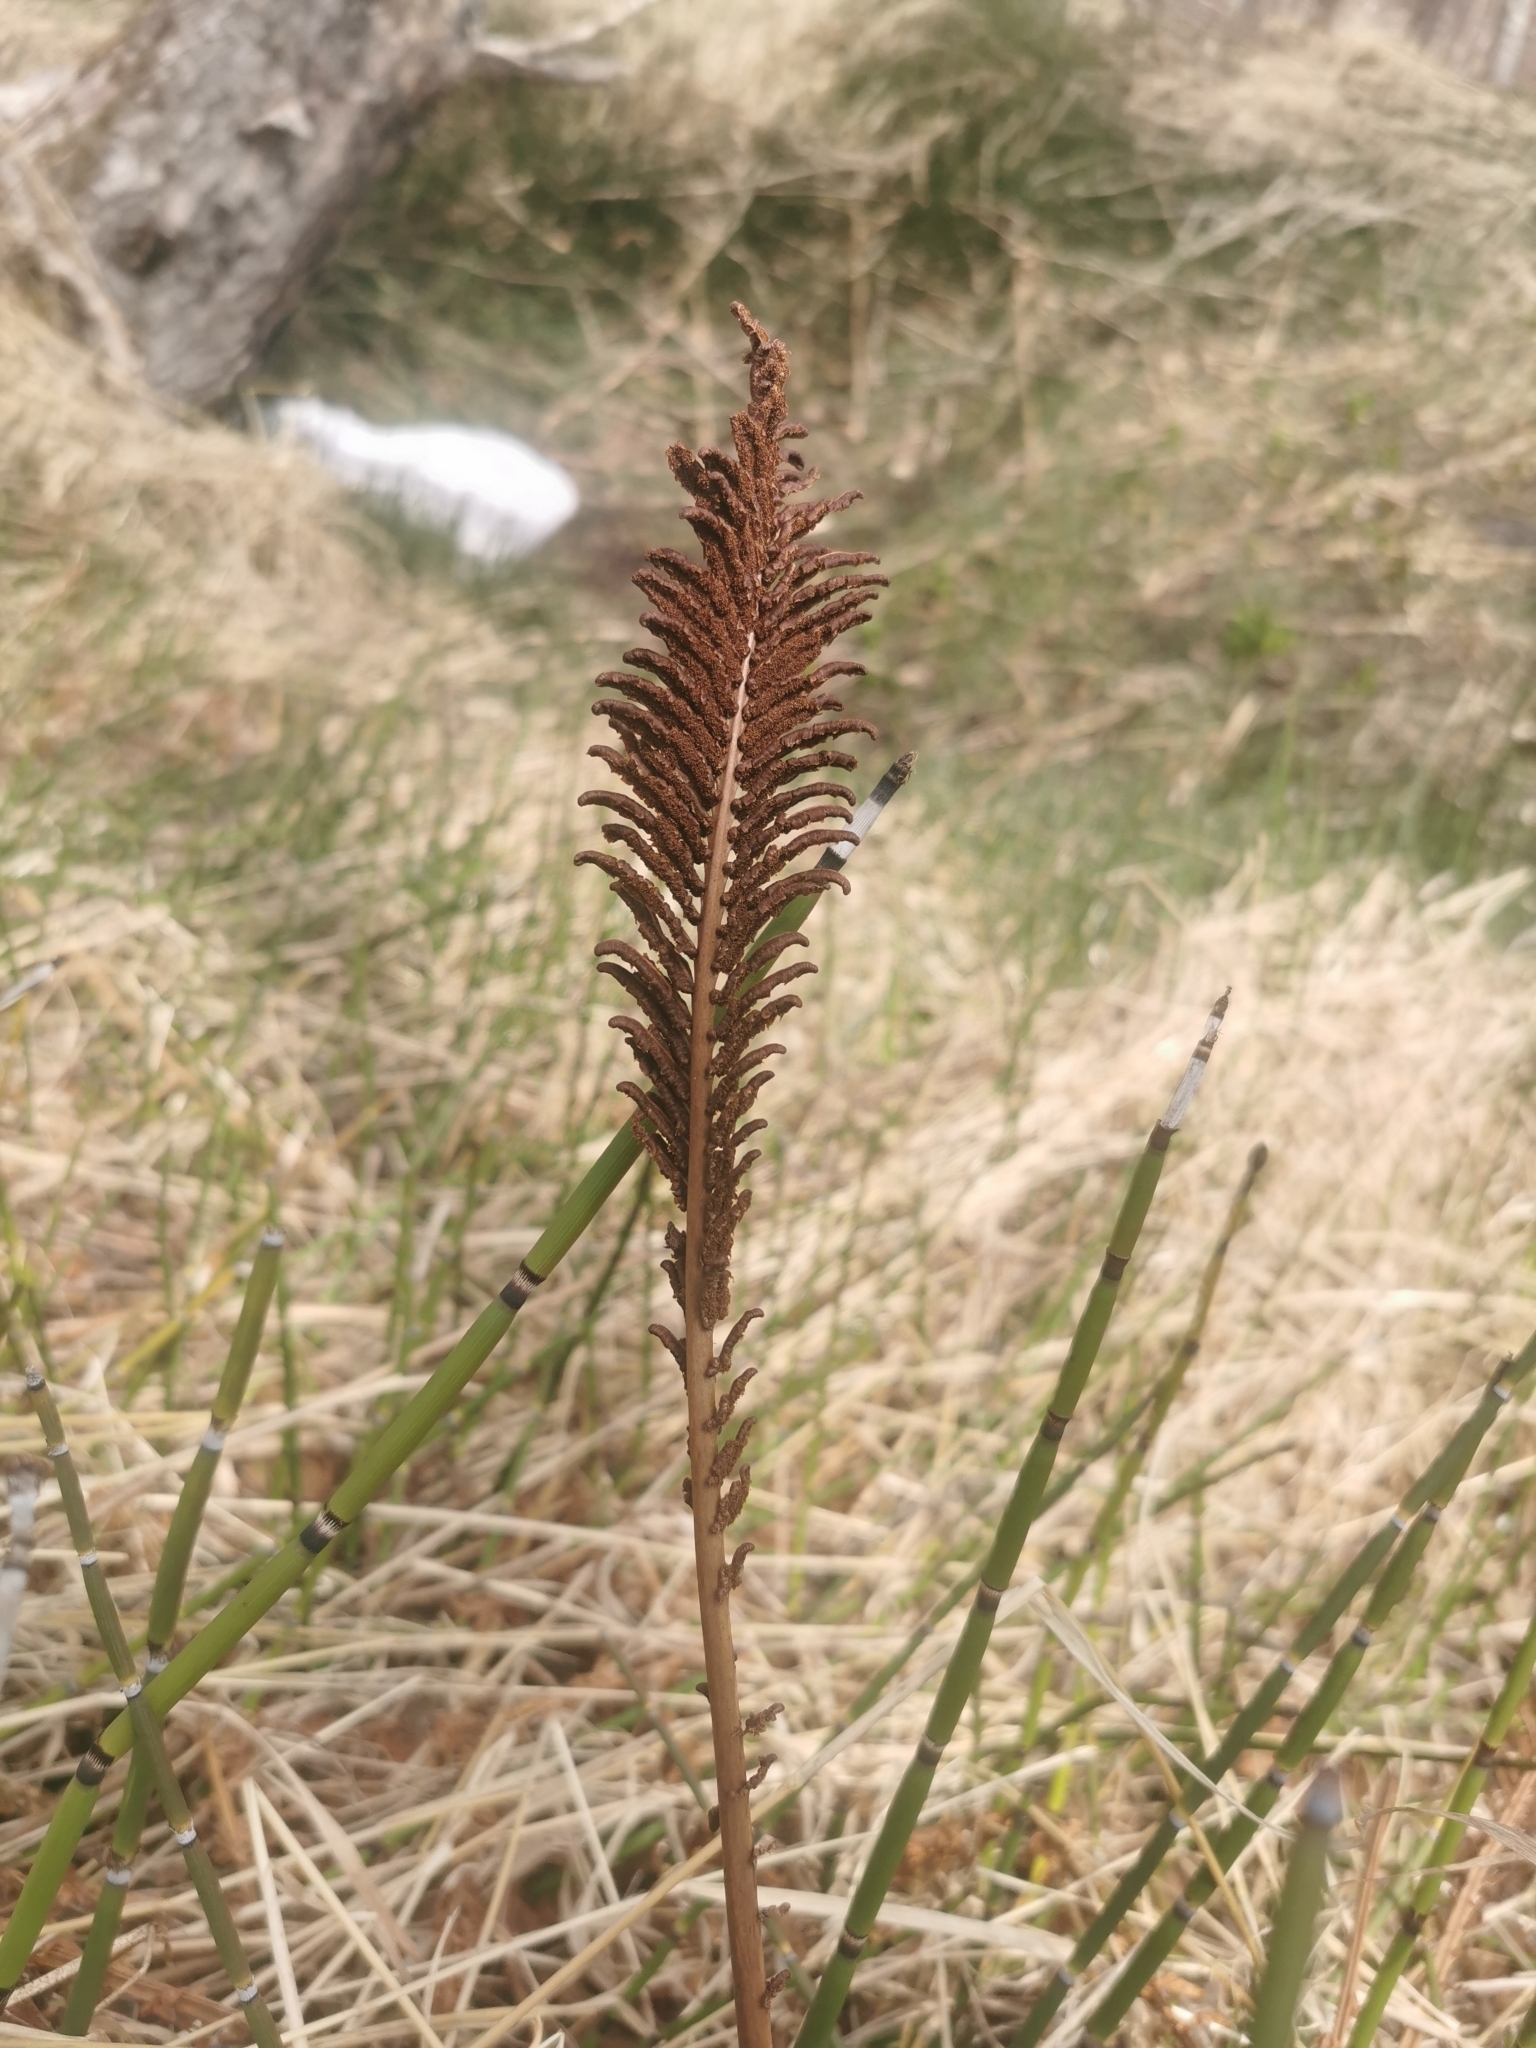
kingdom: Plantae
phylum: Tracheophyta
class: Polypodiopsida
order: Polypodiales
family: Onocleaceae
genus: Matteuccia
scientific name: Matteuccia struthiopteris
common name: Ostrich fern
